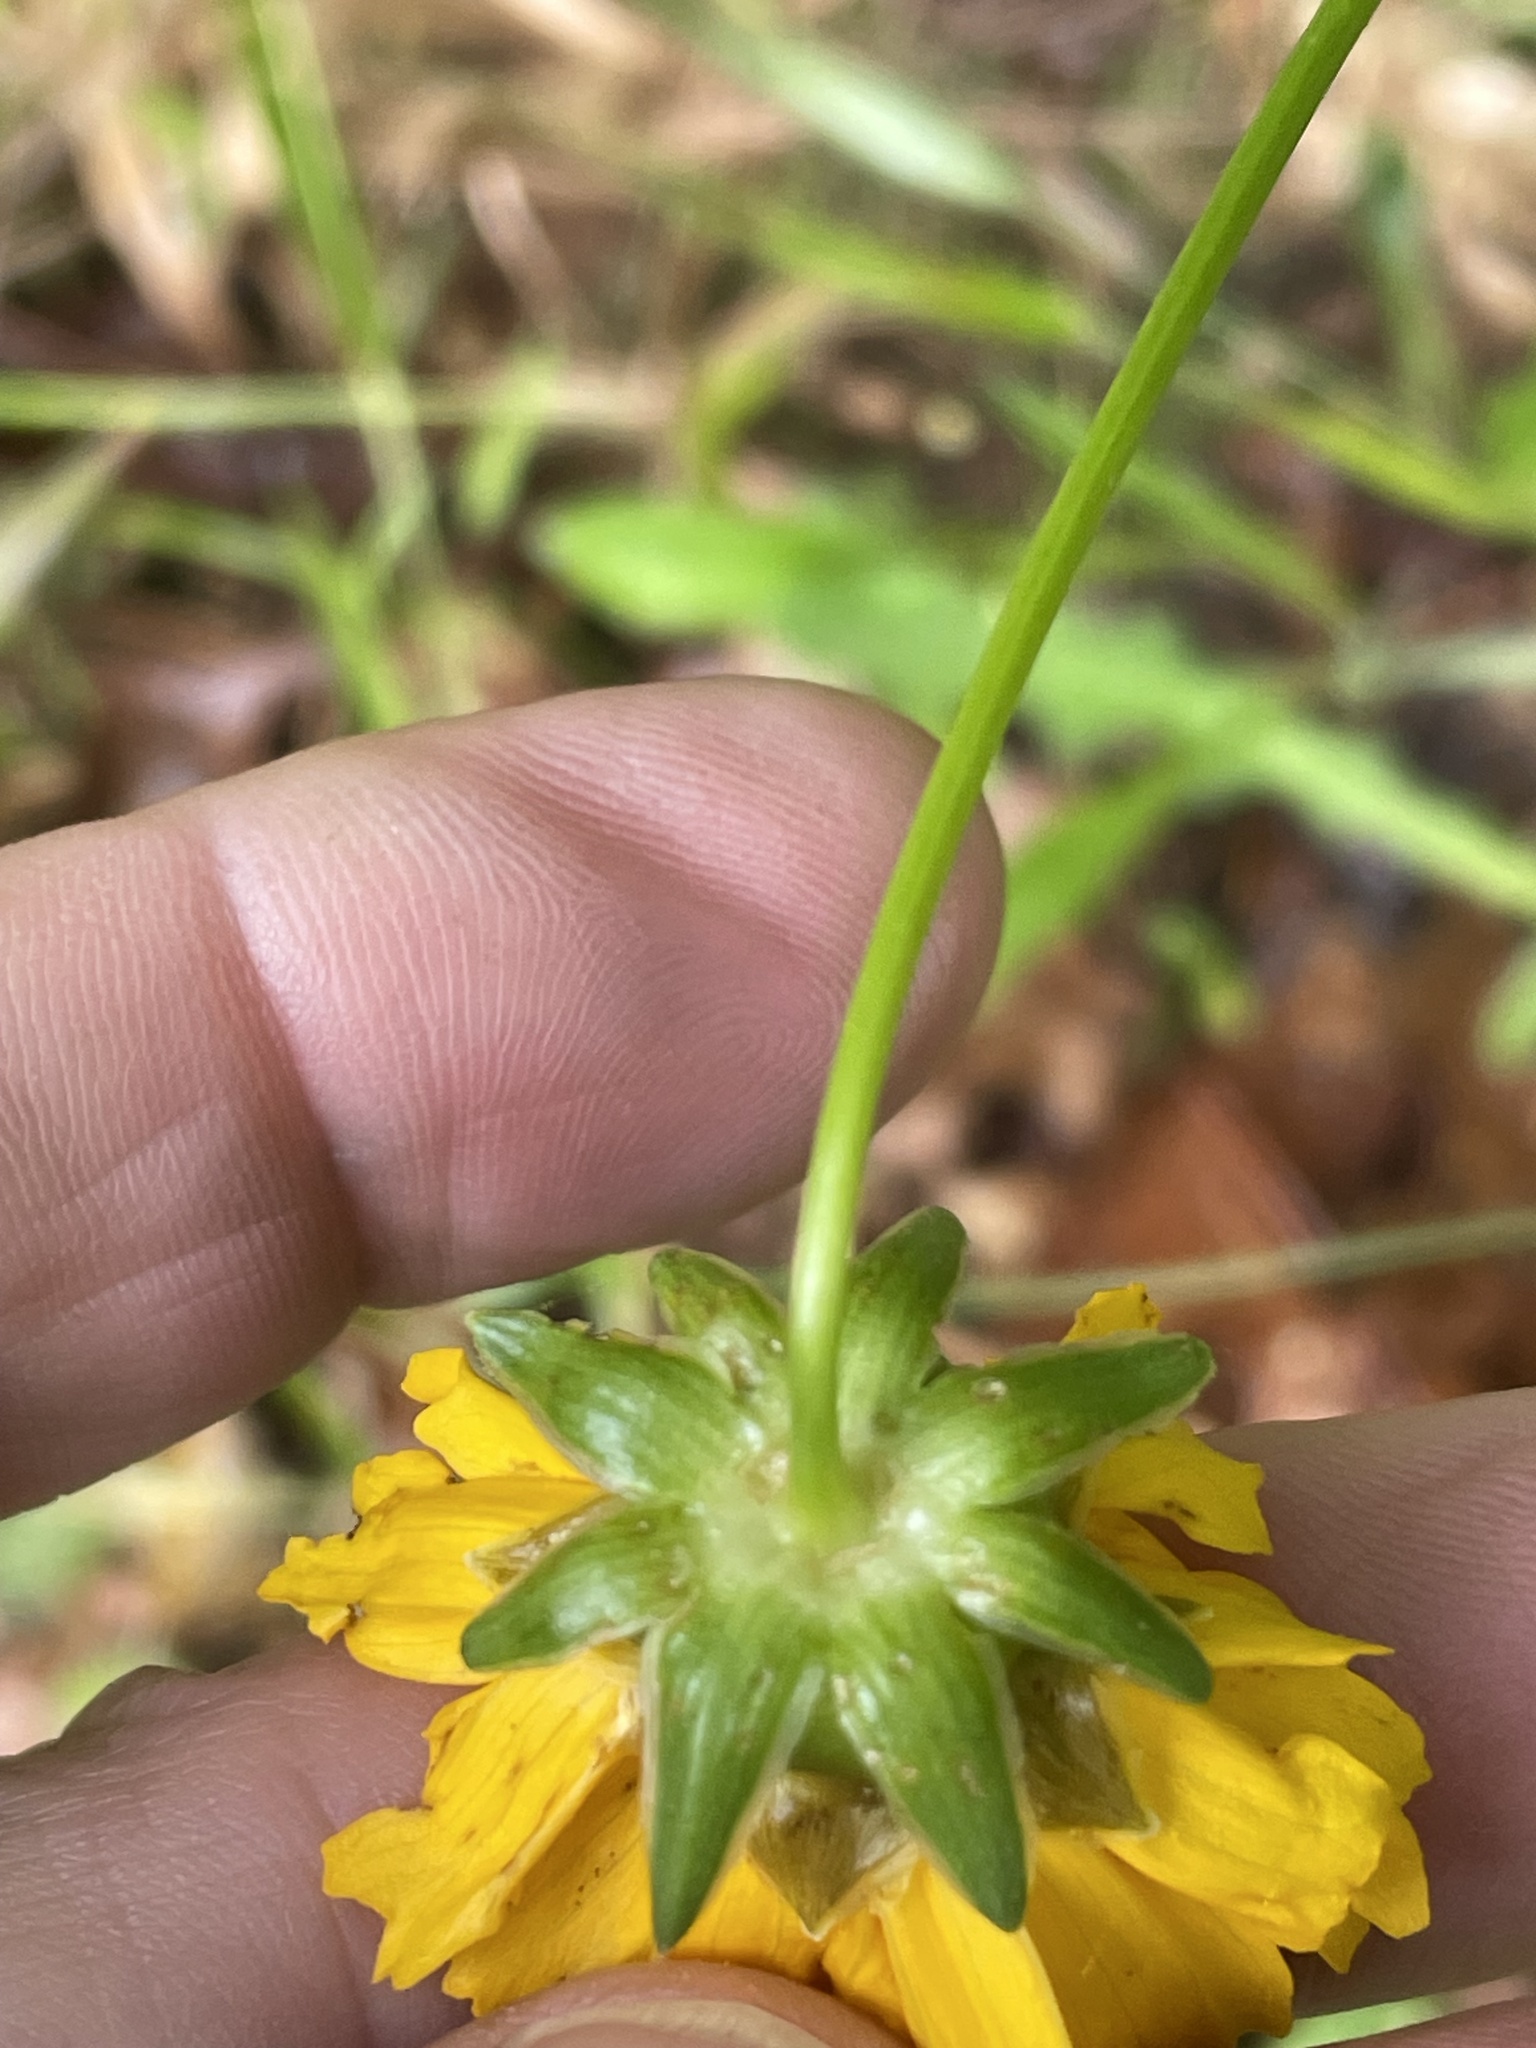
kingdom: Plantae
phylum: Tracheophyta
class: Magnoliopsida
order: Asterales
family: Asteraceae
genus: Coreopsis
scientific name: Coreopsis lanceolata
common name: Garden coreopsis
